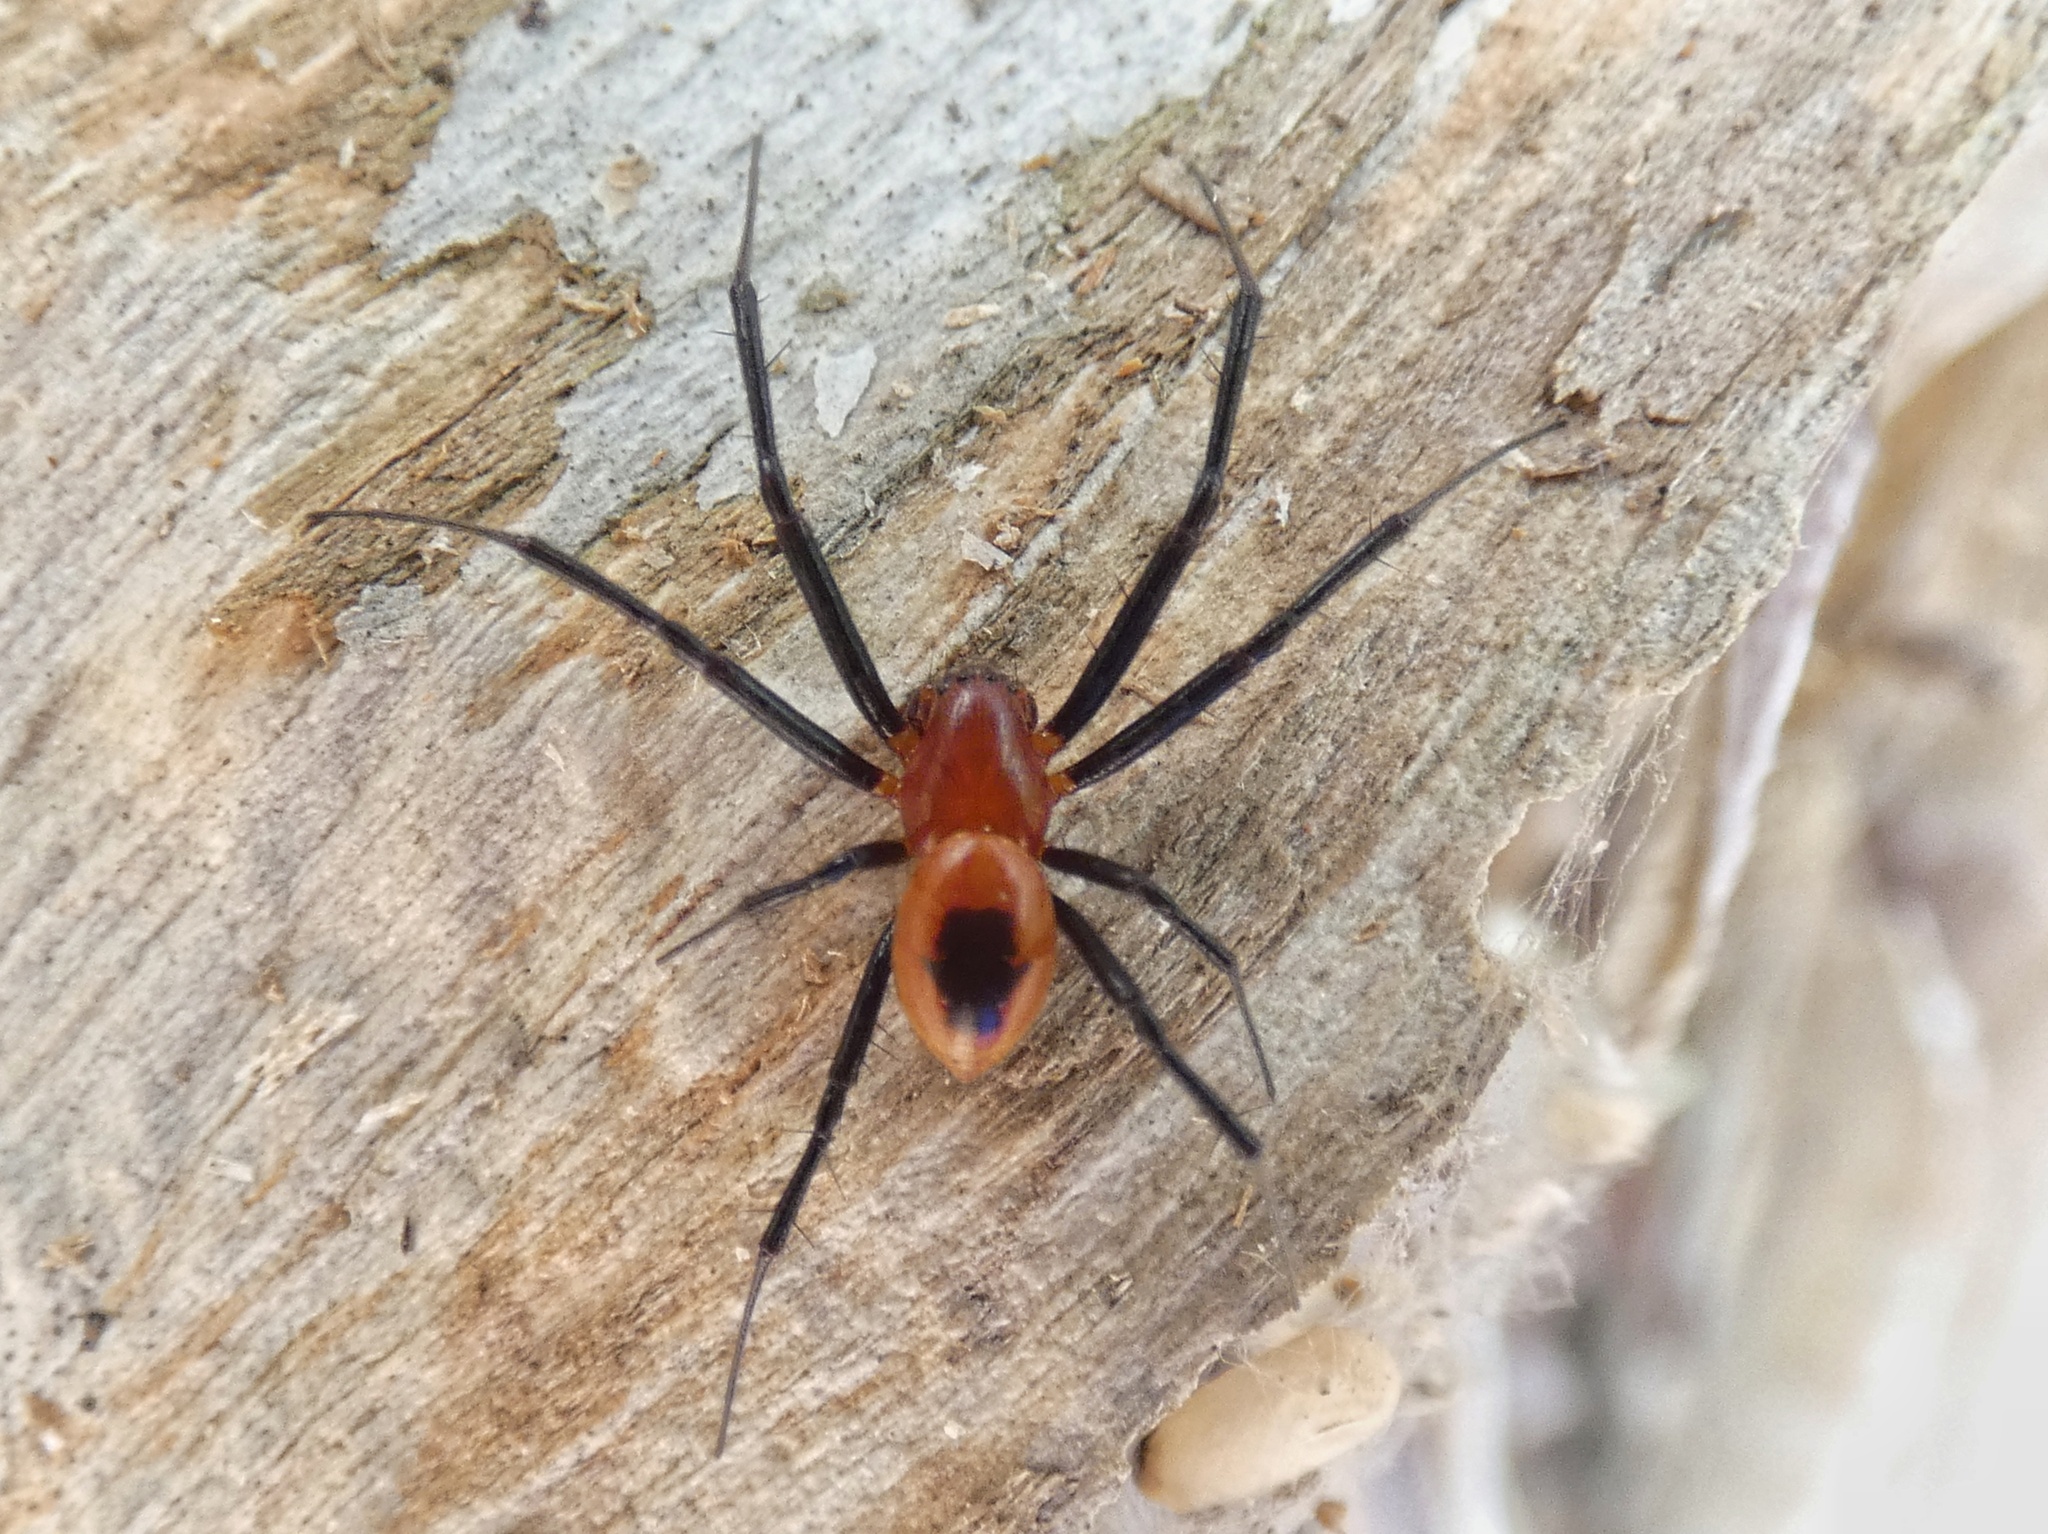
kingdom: Animalia
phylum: Arthropoda
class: Arachnida
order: Araneae
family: Araneidae
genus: Nephilengys
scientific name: Nephilengys papuana
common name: Papuan hermit spider
